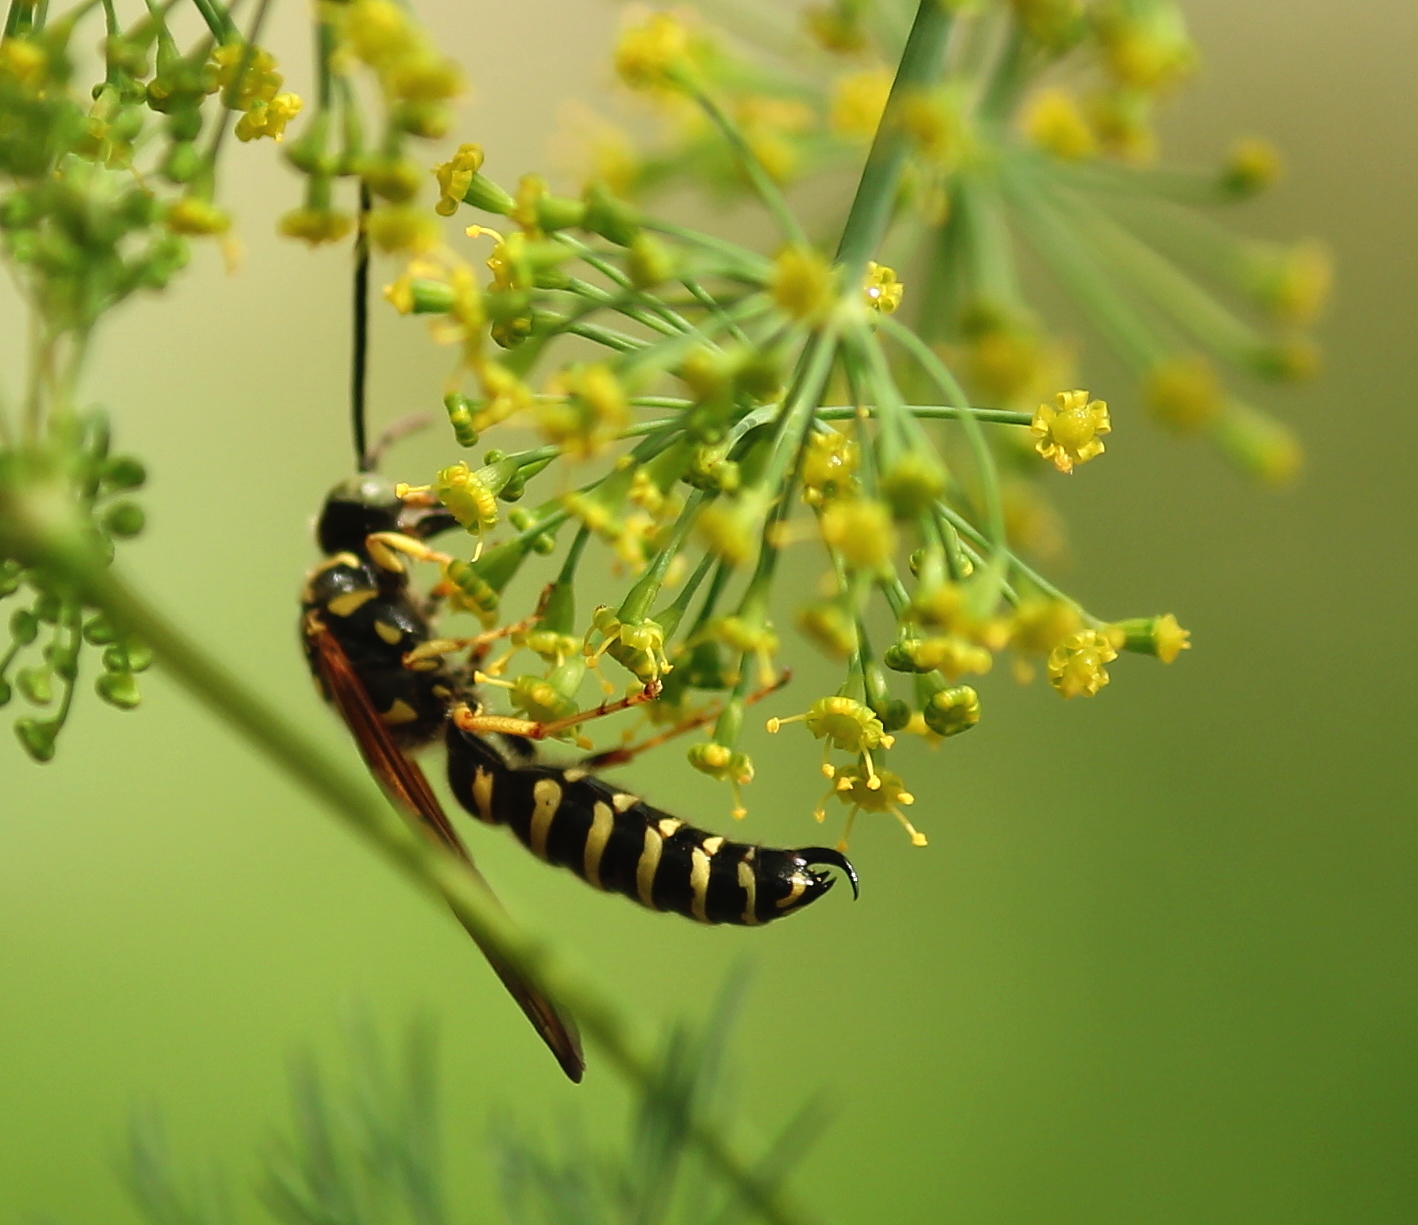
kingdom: Animalia
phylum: Arthropoda
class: Insecta
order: Hymenoptera
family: Tiphiidae
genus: Myzinum
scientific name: Myzinum quinquecinctum
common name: Five-banded thynnid wasp
